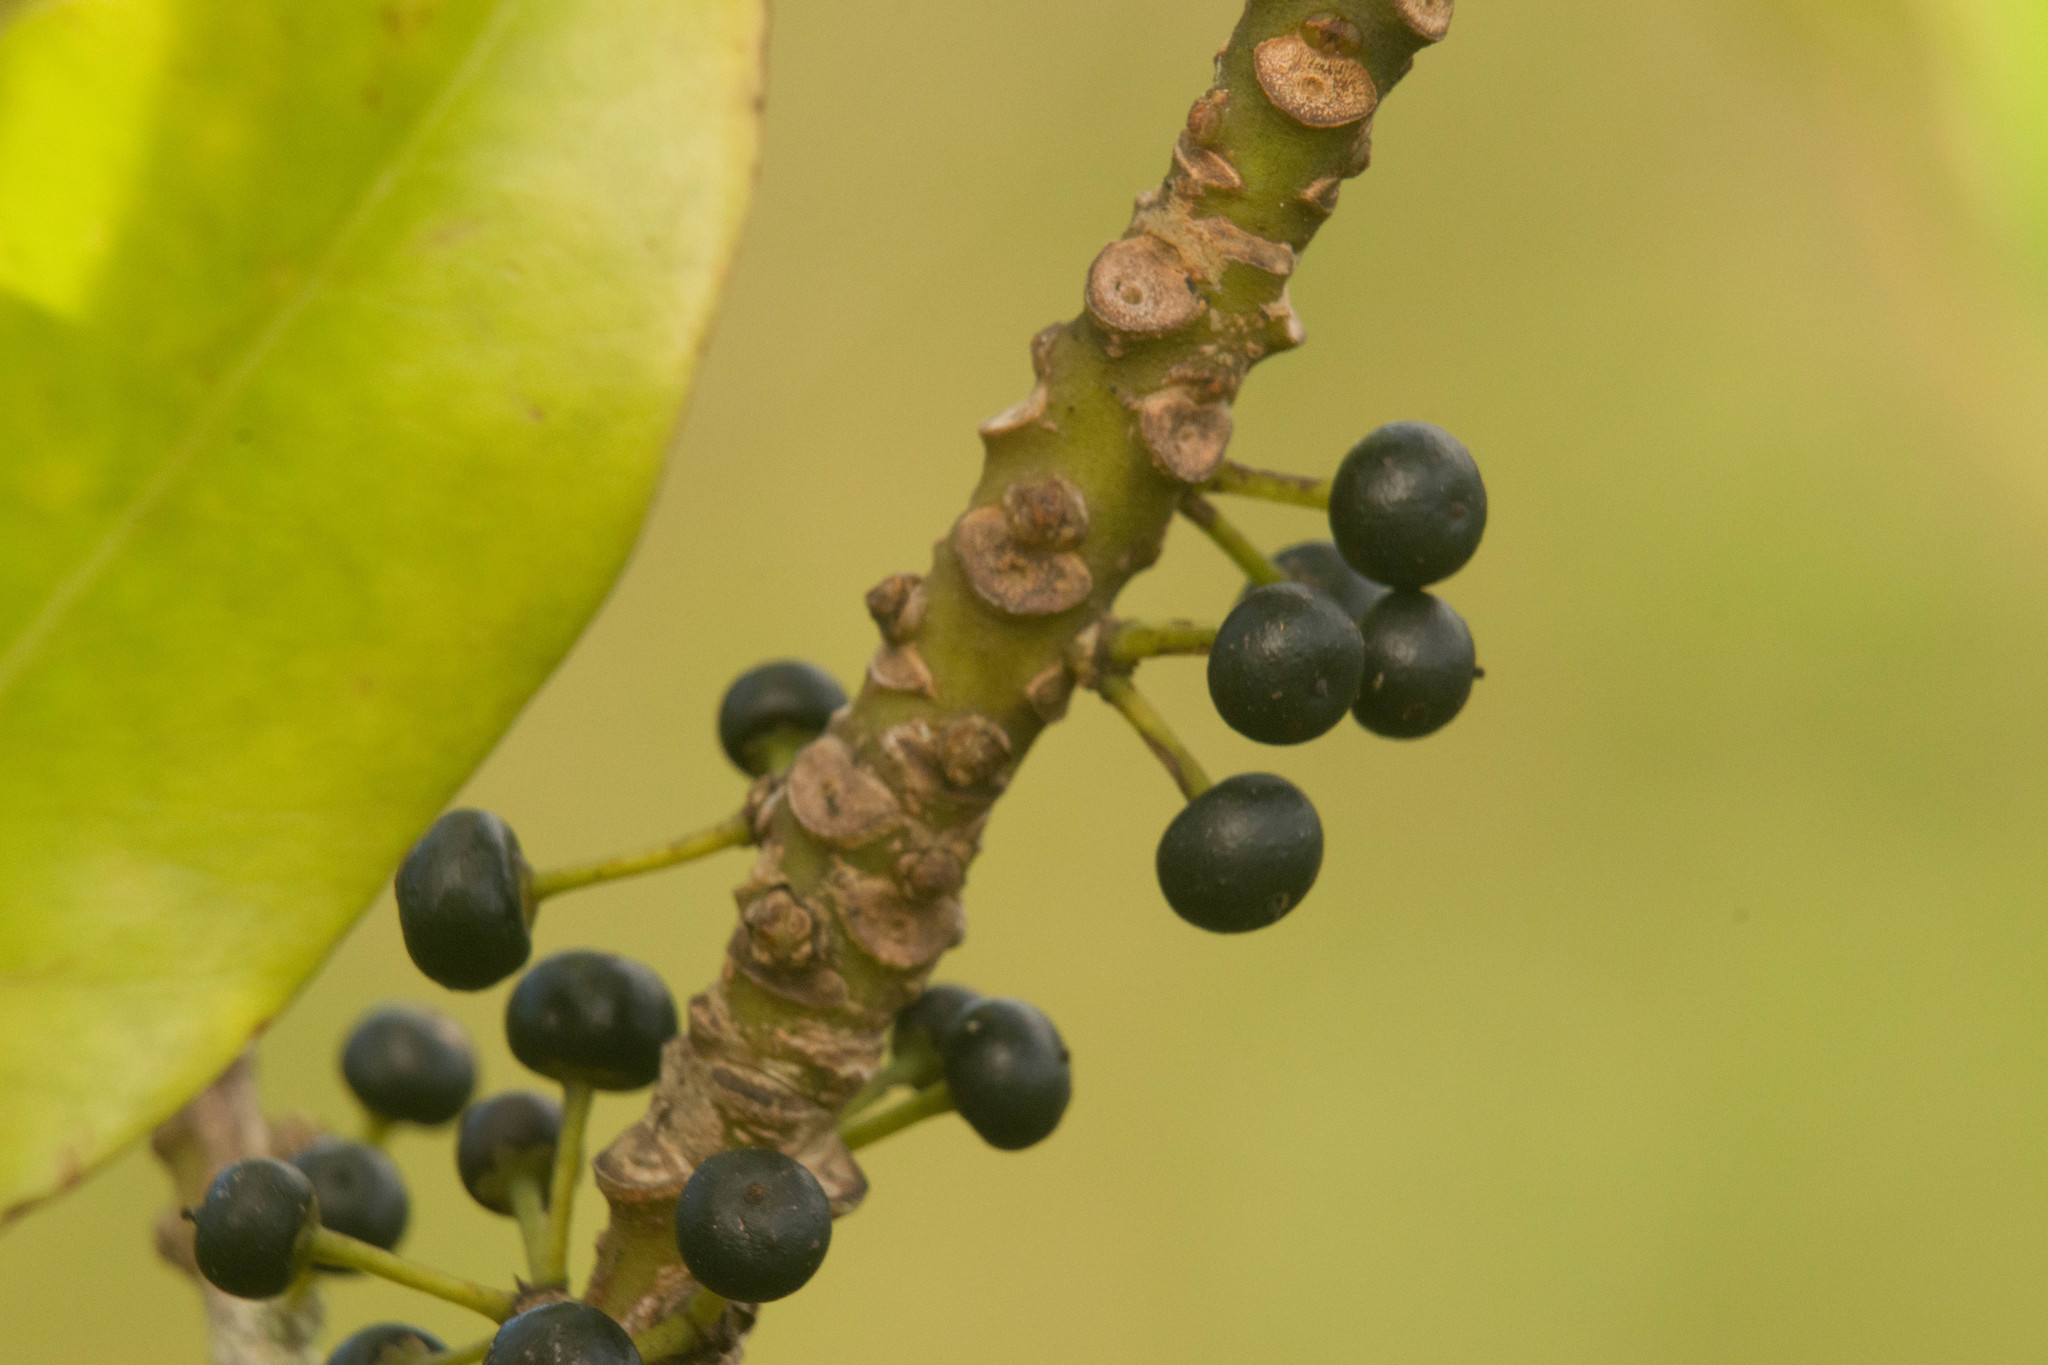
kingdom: Plantae
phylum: Tracheophyta
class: Magnoliopsida
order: Ericales
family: Primulaceae
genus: Myrsine
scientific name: Myrsine lessertiana
